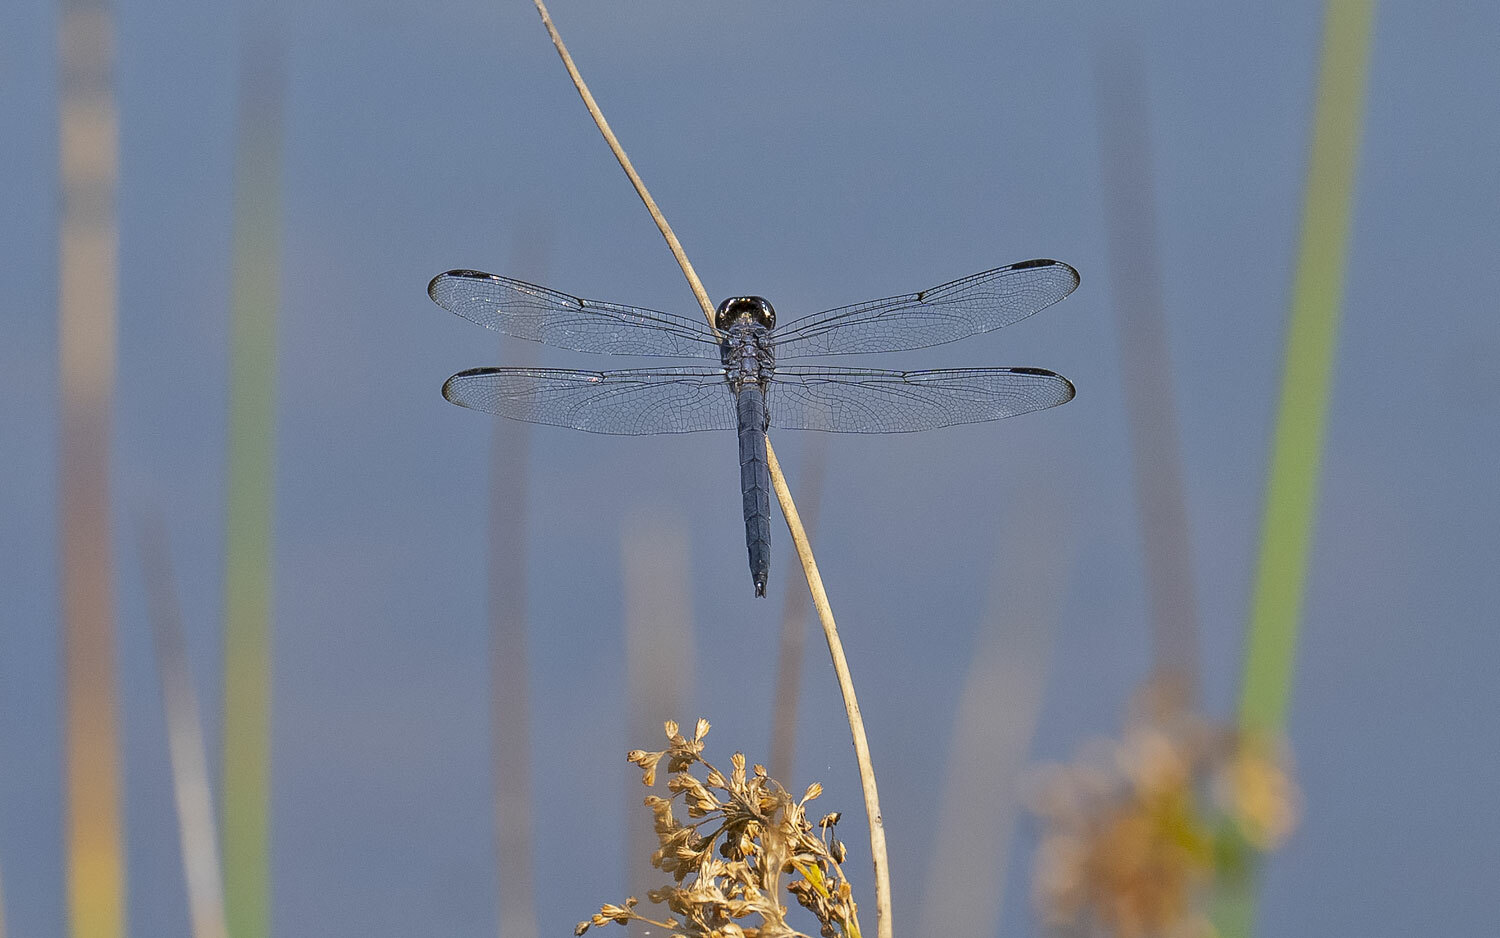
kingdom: Animalia
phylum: Arthropoda
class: Insecta
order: Odonata
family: Libellulidae
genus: Libellula
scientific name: Libellula incesta
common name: Slaty skimmer
